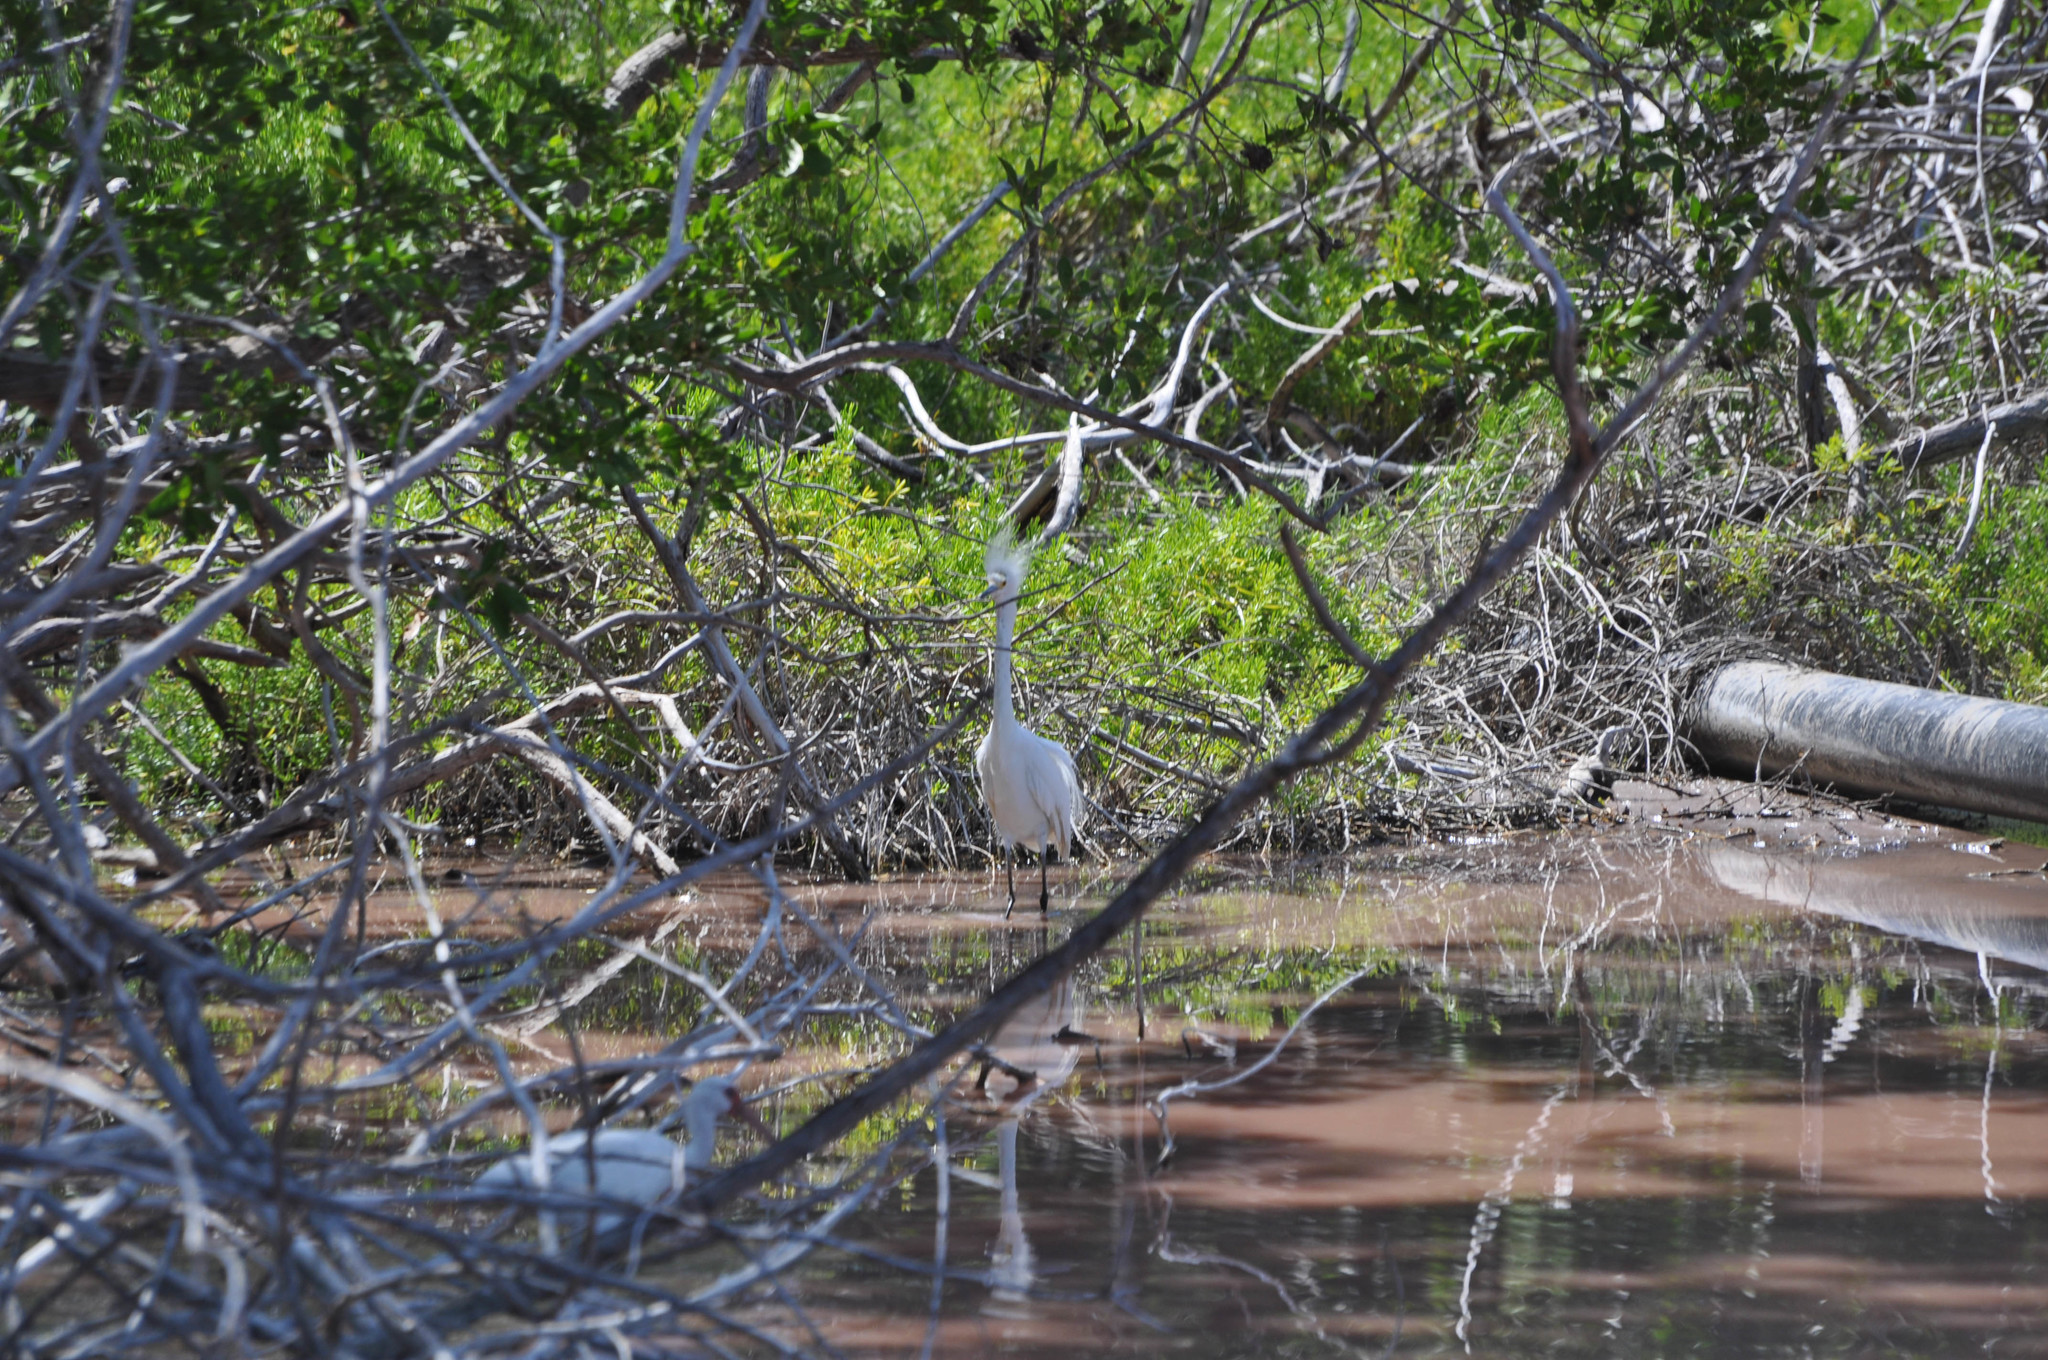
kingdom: Animalia
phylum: Chordata
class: Aves
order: Pelecaniformes
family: Ardeidae
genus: Egretta
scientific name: Egretta thula
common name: Snowy egret
